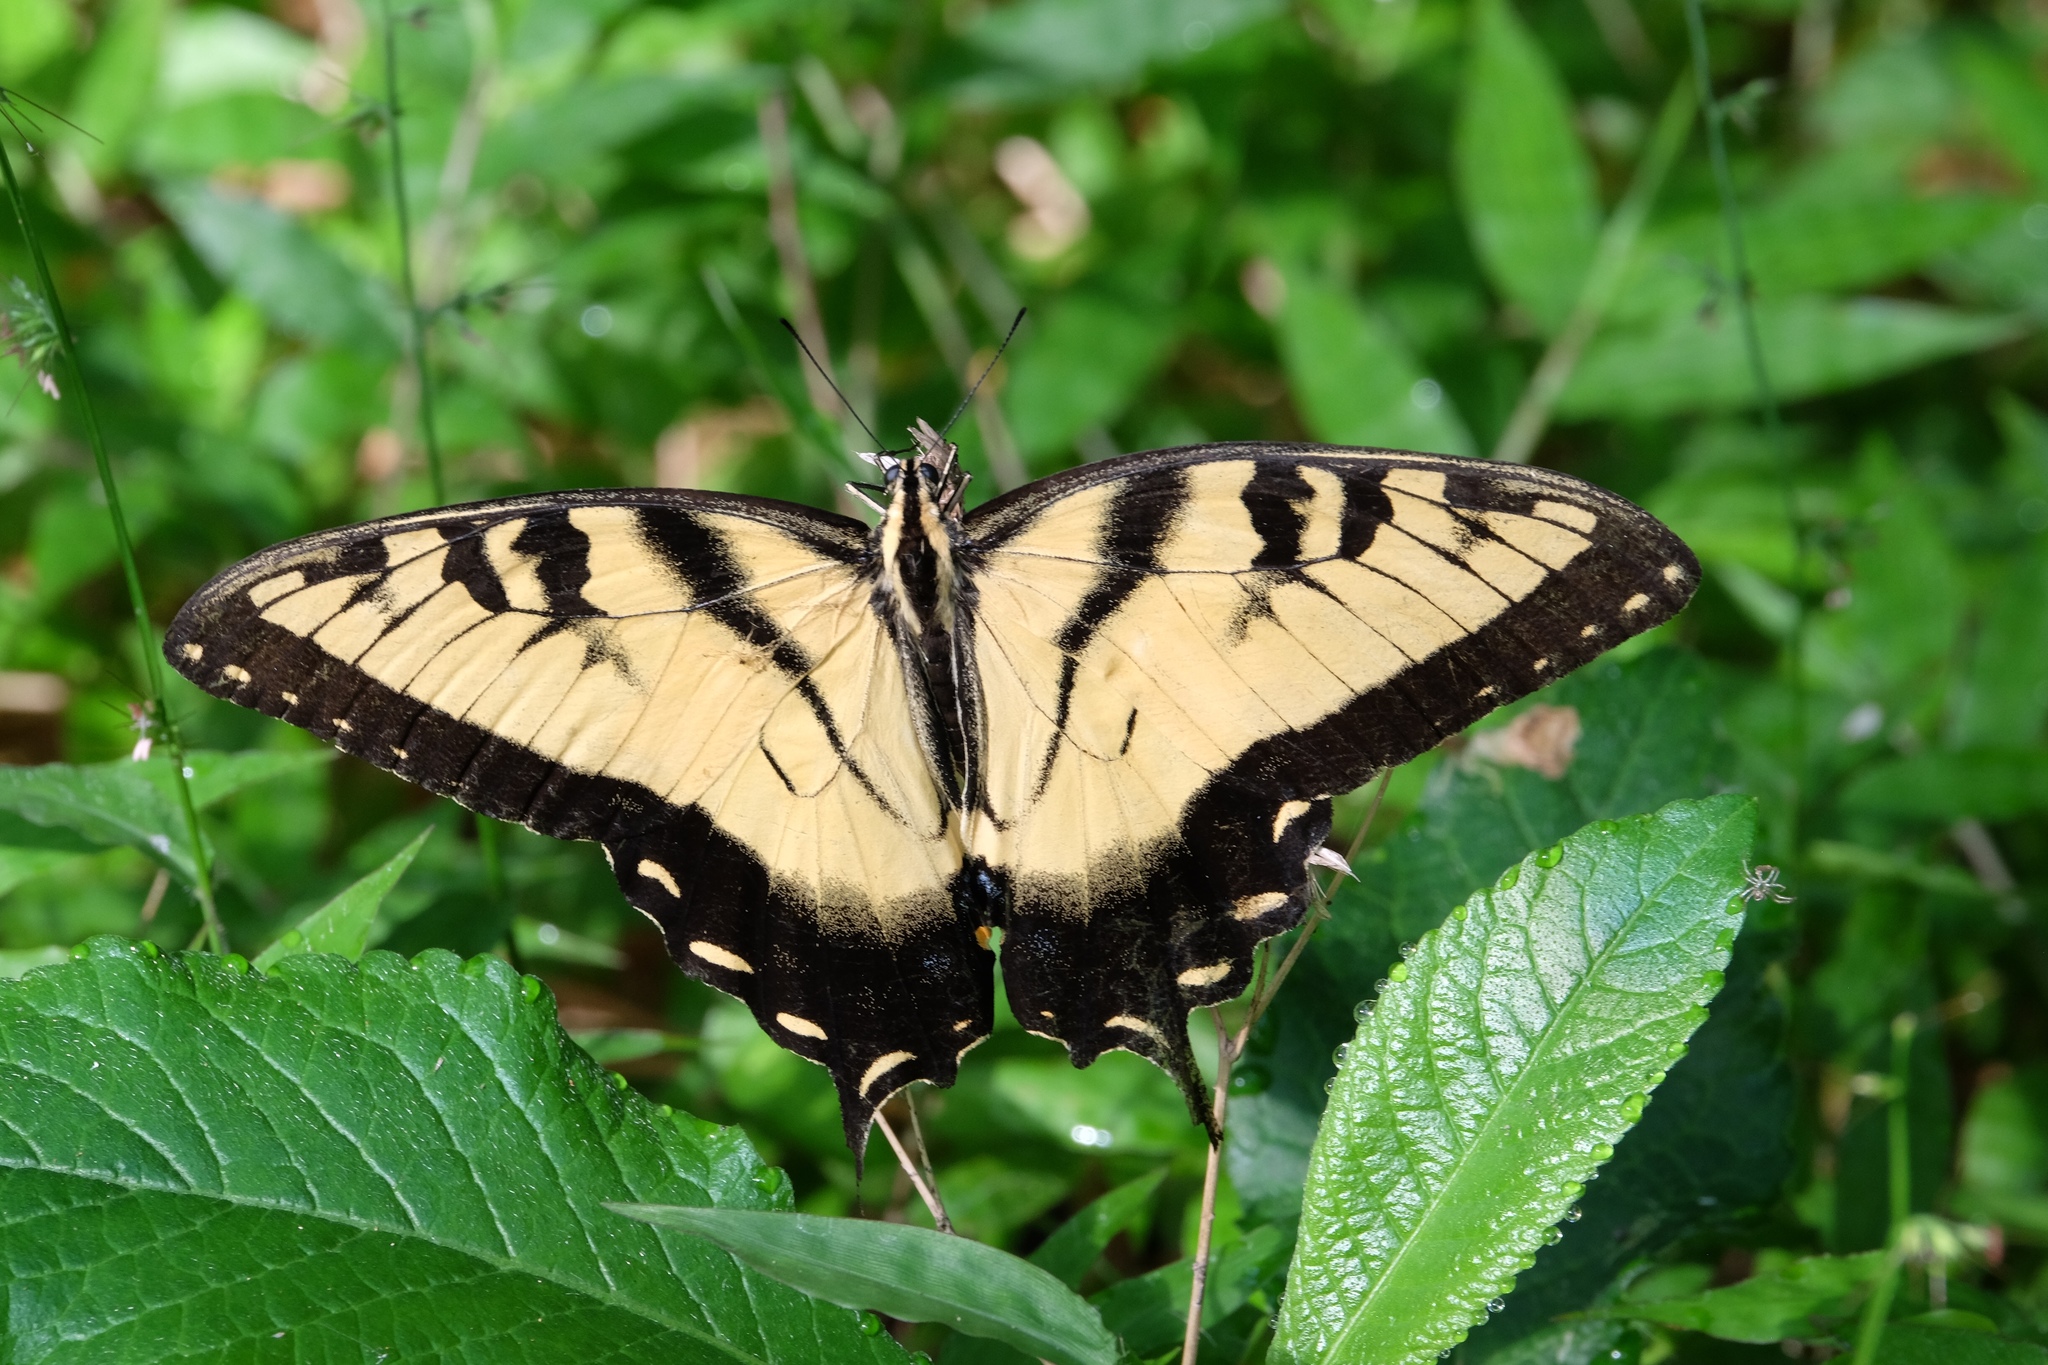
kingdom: Animalia
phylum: Arthropoda
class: Insecta
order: Lepidoptera
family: Papilionidae
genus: Papilio
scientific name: Papilio glaucus
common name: Tiger swallowtail
